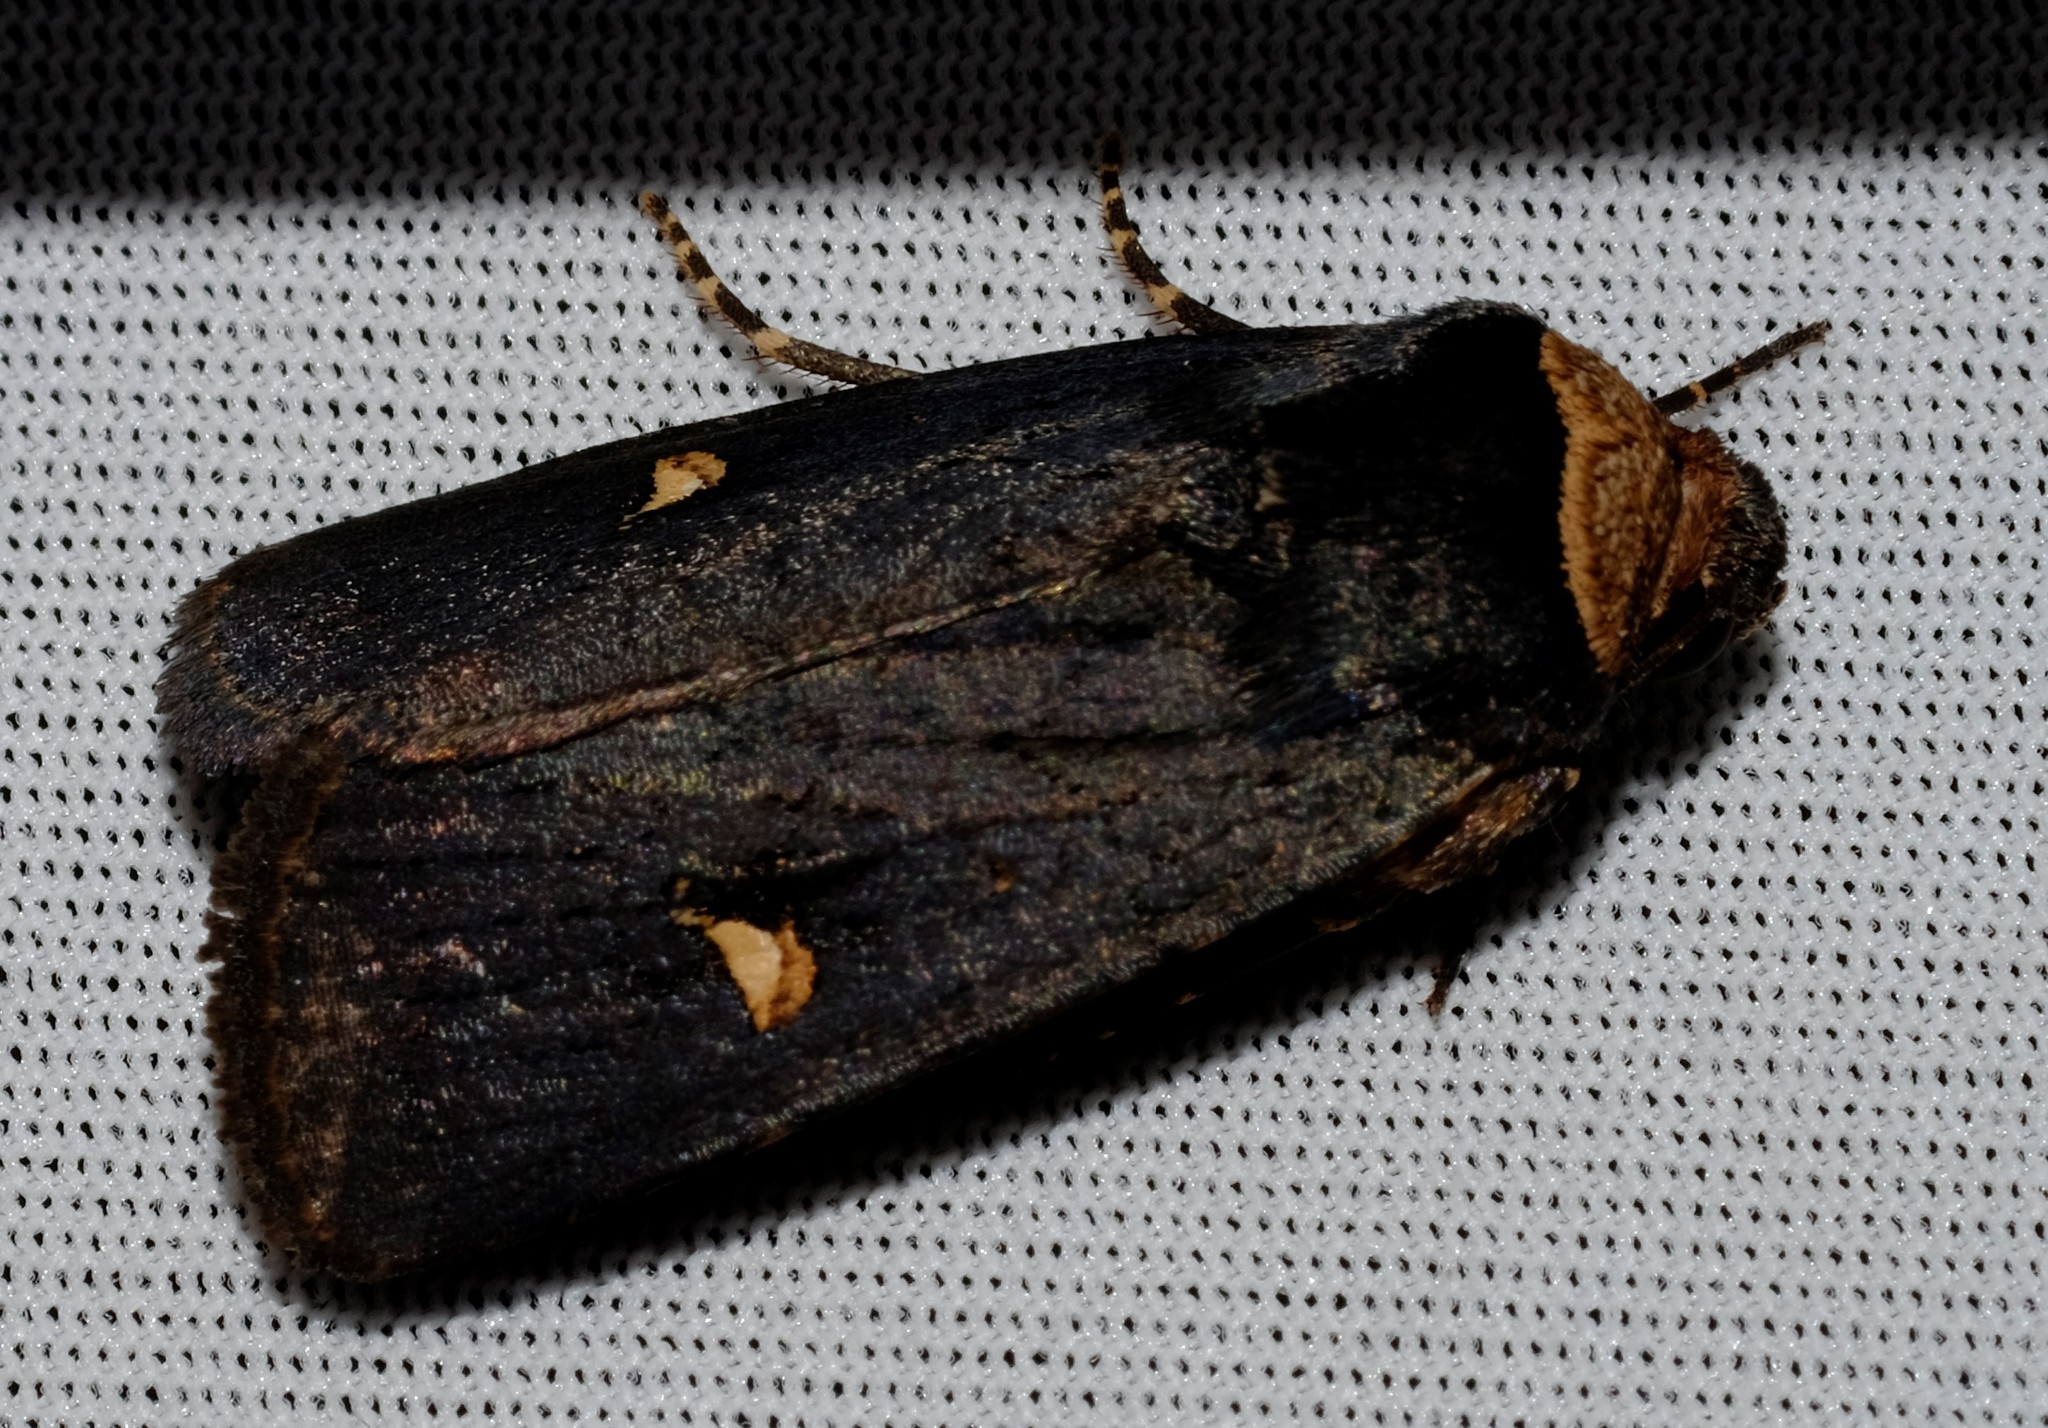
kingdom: Animalia
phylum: Arthropoda
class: Insecta
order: Lepidoptera
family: Noctuidae
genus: Proteuxoa
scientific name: Proteuxoa testaceicollis
